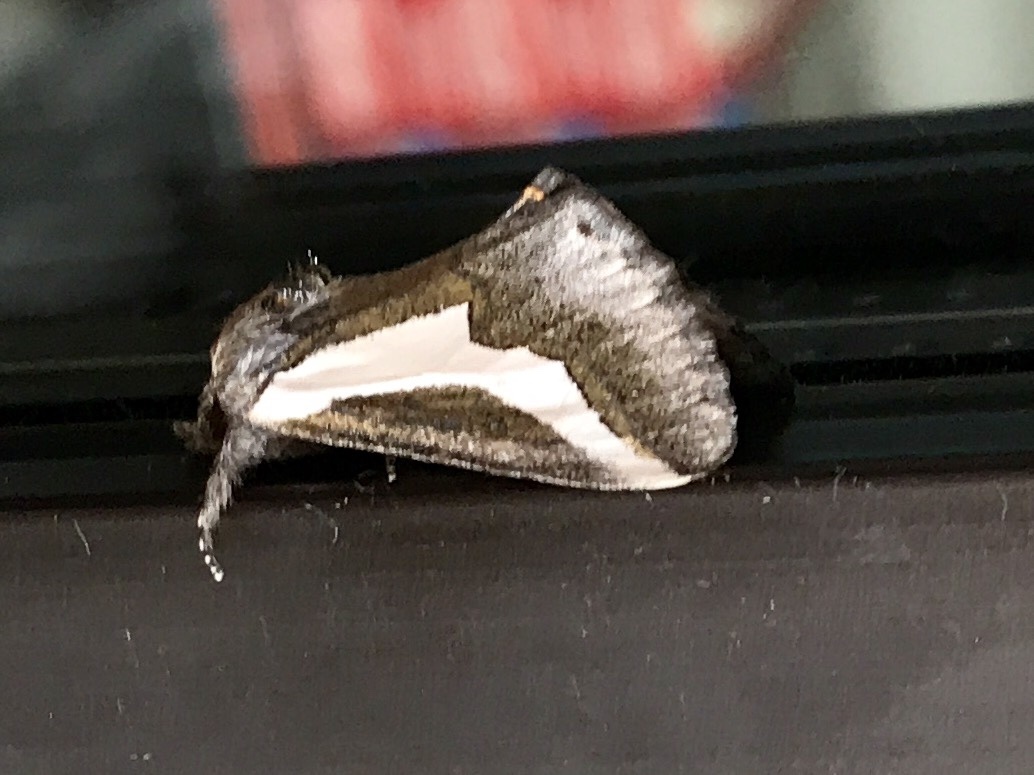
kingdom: Animalia
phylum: Arthropoda
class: Insecta
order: Lepidoptera
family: Noctuidae
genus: Euscirrhopterus
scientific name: Euscirrhopterus cosyra
